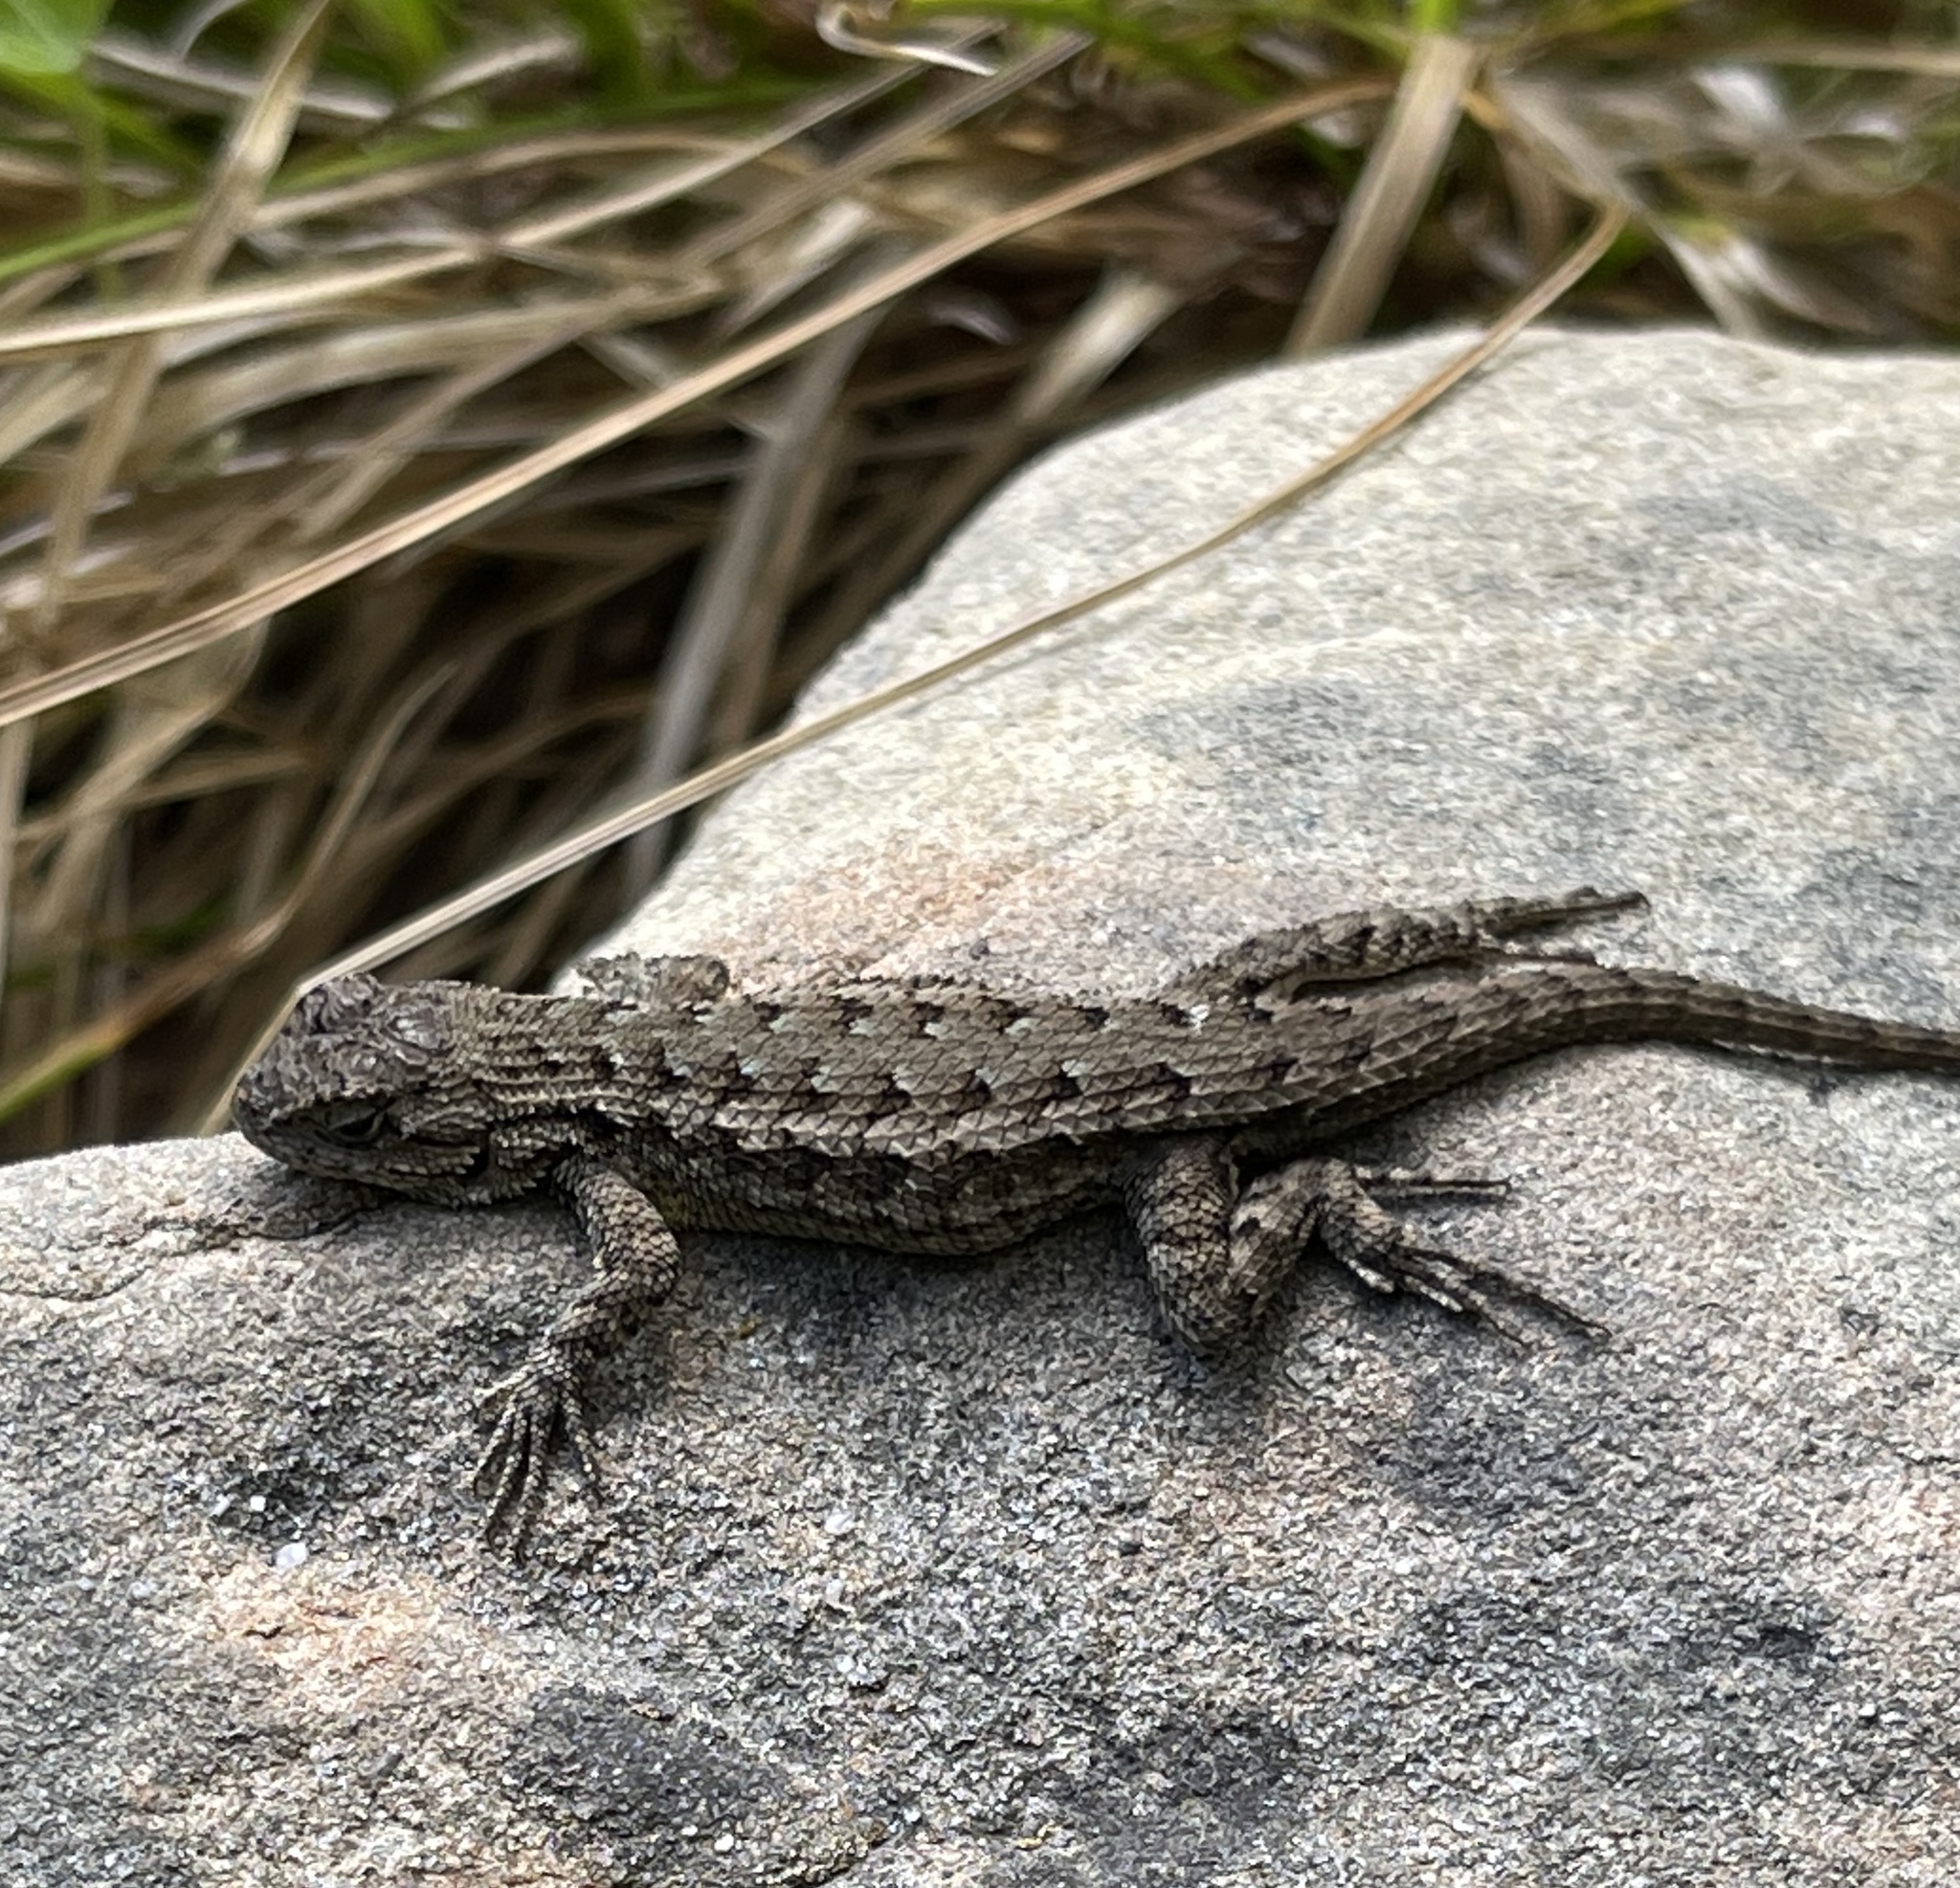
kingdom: Animalia
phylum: Chordata
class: Squamata
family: Phrynosomatidae
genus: Sceloporus
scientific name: Sceloporus occidentalis
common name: Western fence lizard
